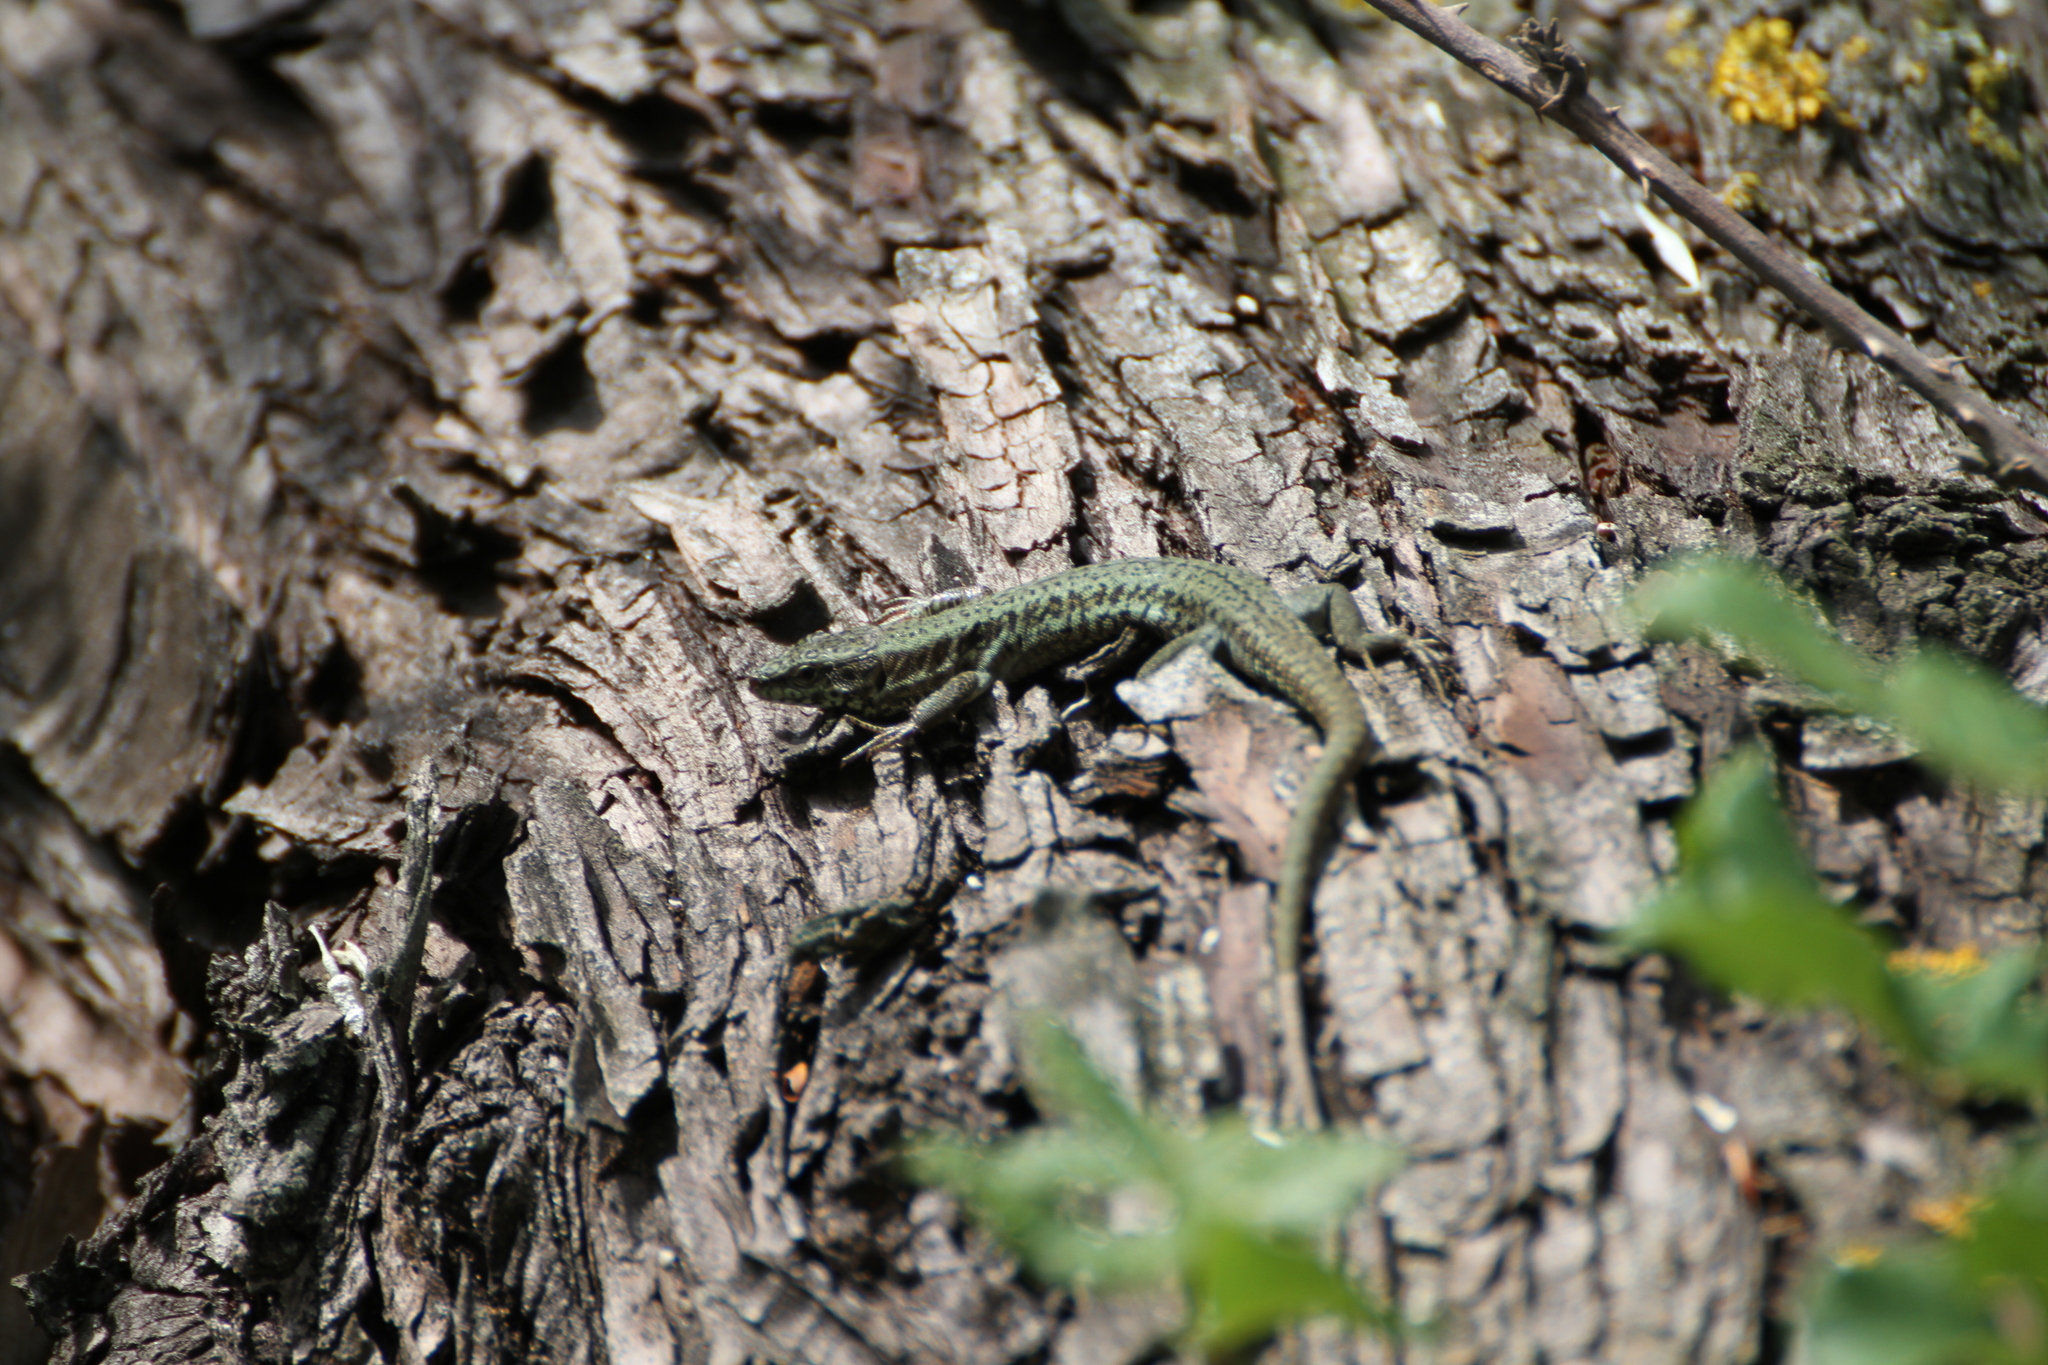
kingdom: Animalia
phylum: Chordata
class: Squamata
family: Lacertidae
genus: Podarcis
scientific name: Podarcis muralis
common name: Common wall lizard
